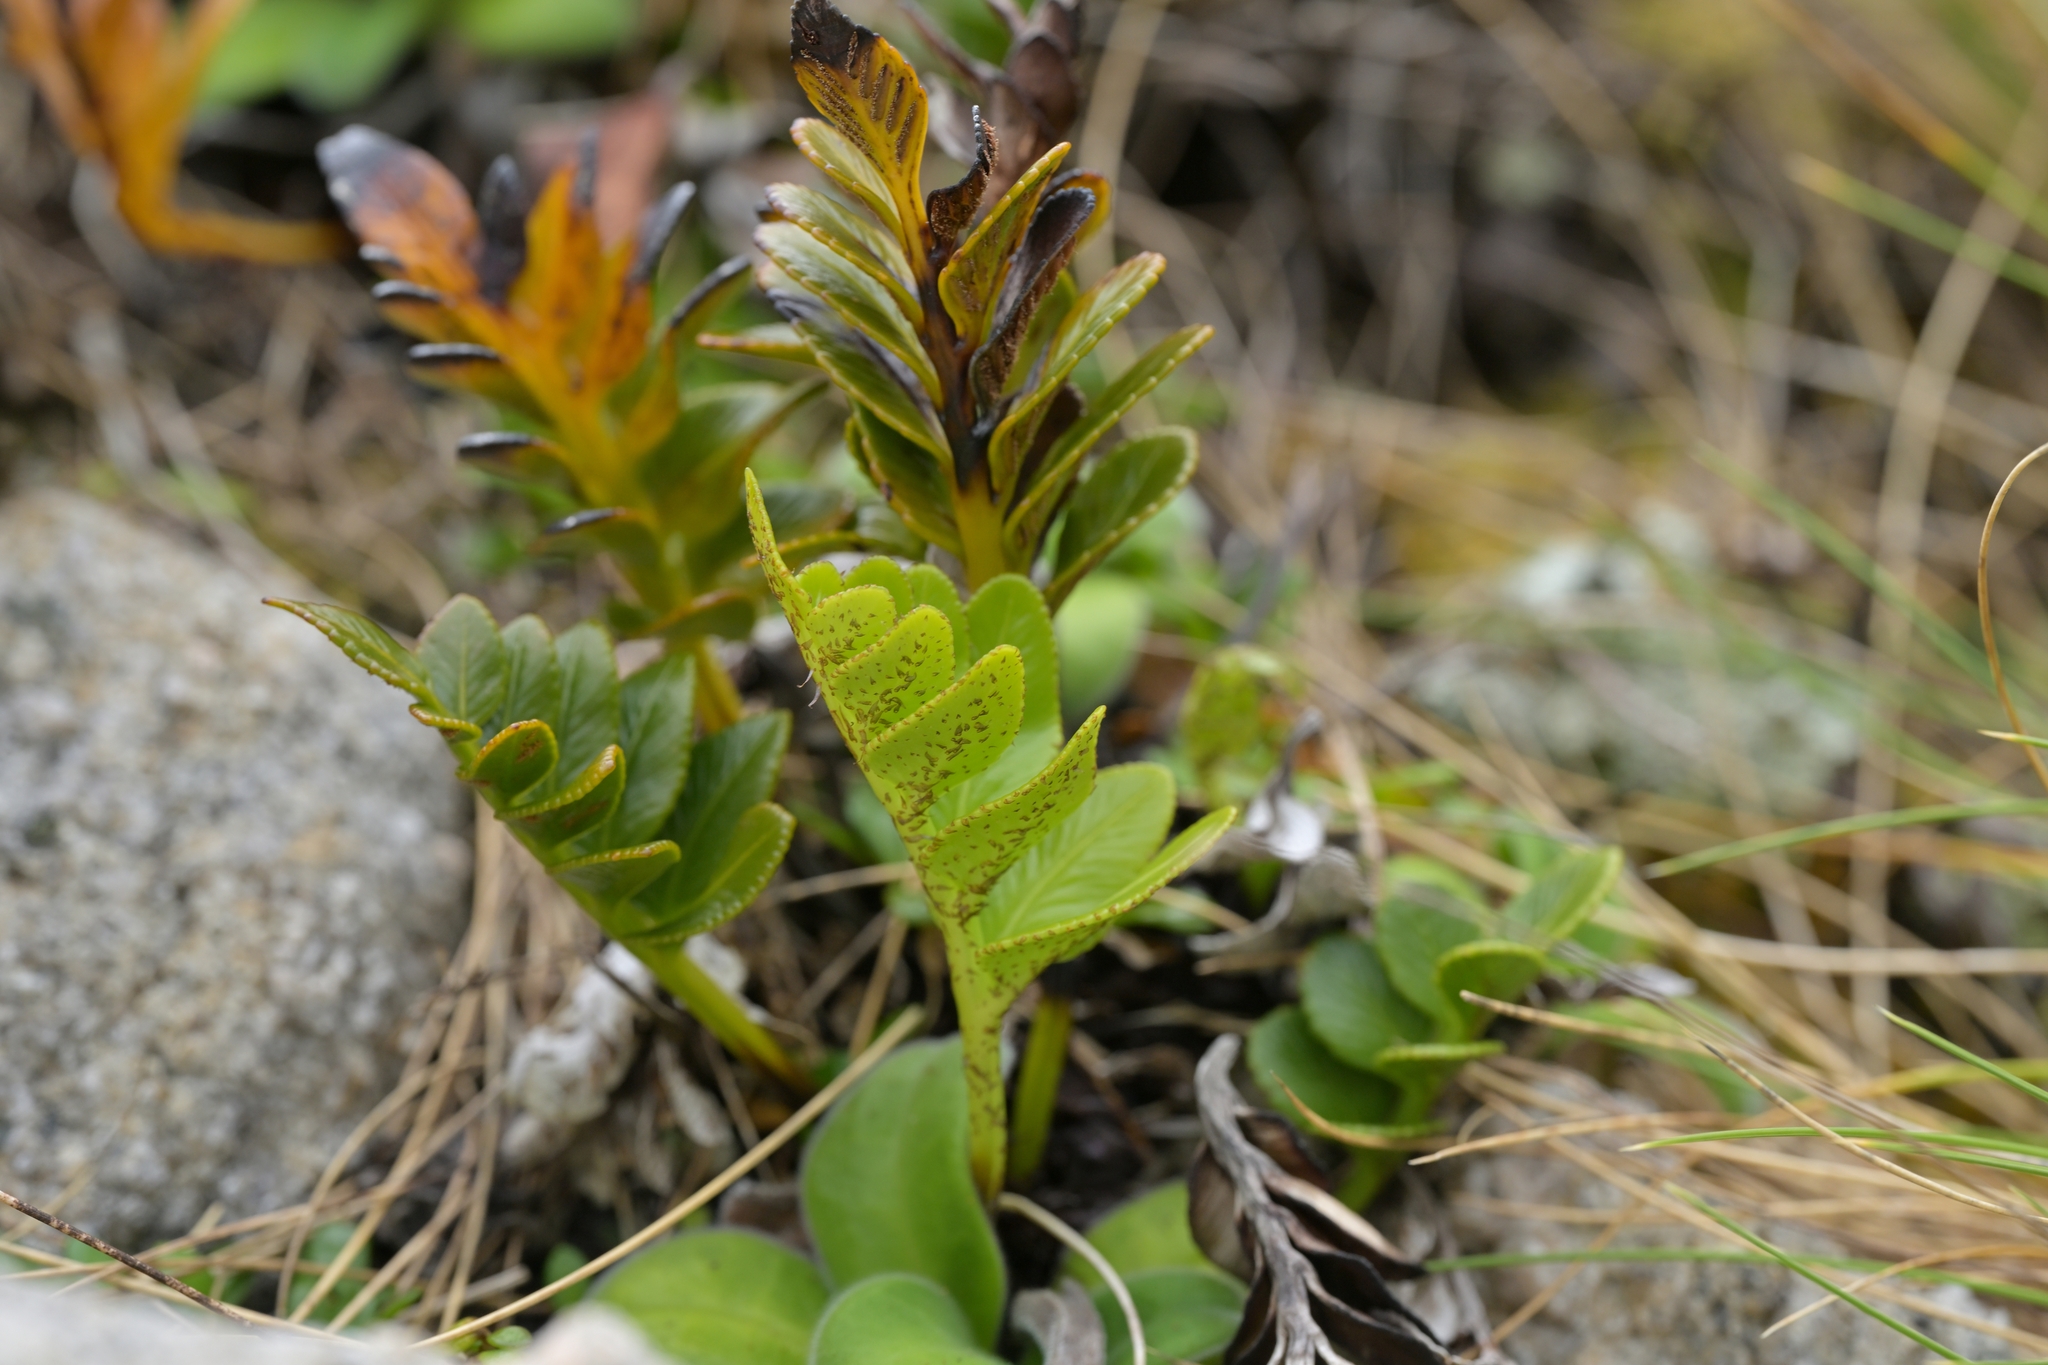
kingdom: Plantae
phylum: Tracheophyta
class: Polypodiopsida
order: Polypodiales
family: Aspleniaceae
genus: Asplenium
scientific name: Asplenium obtusatum
